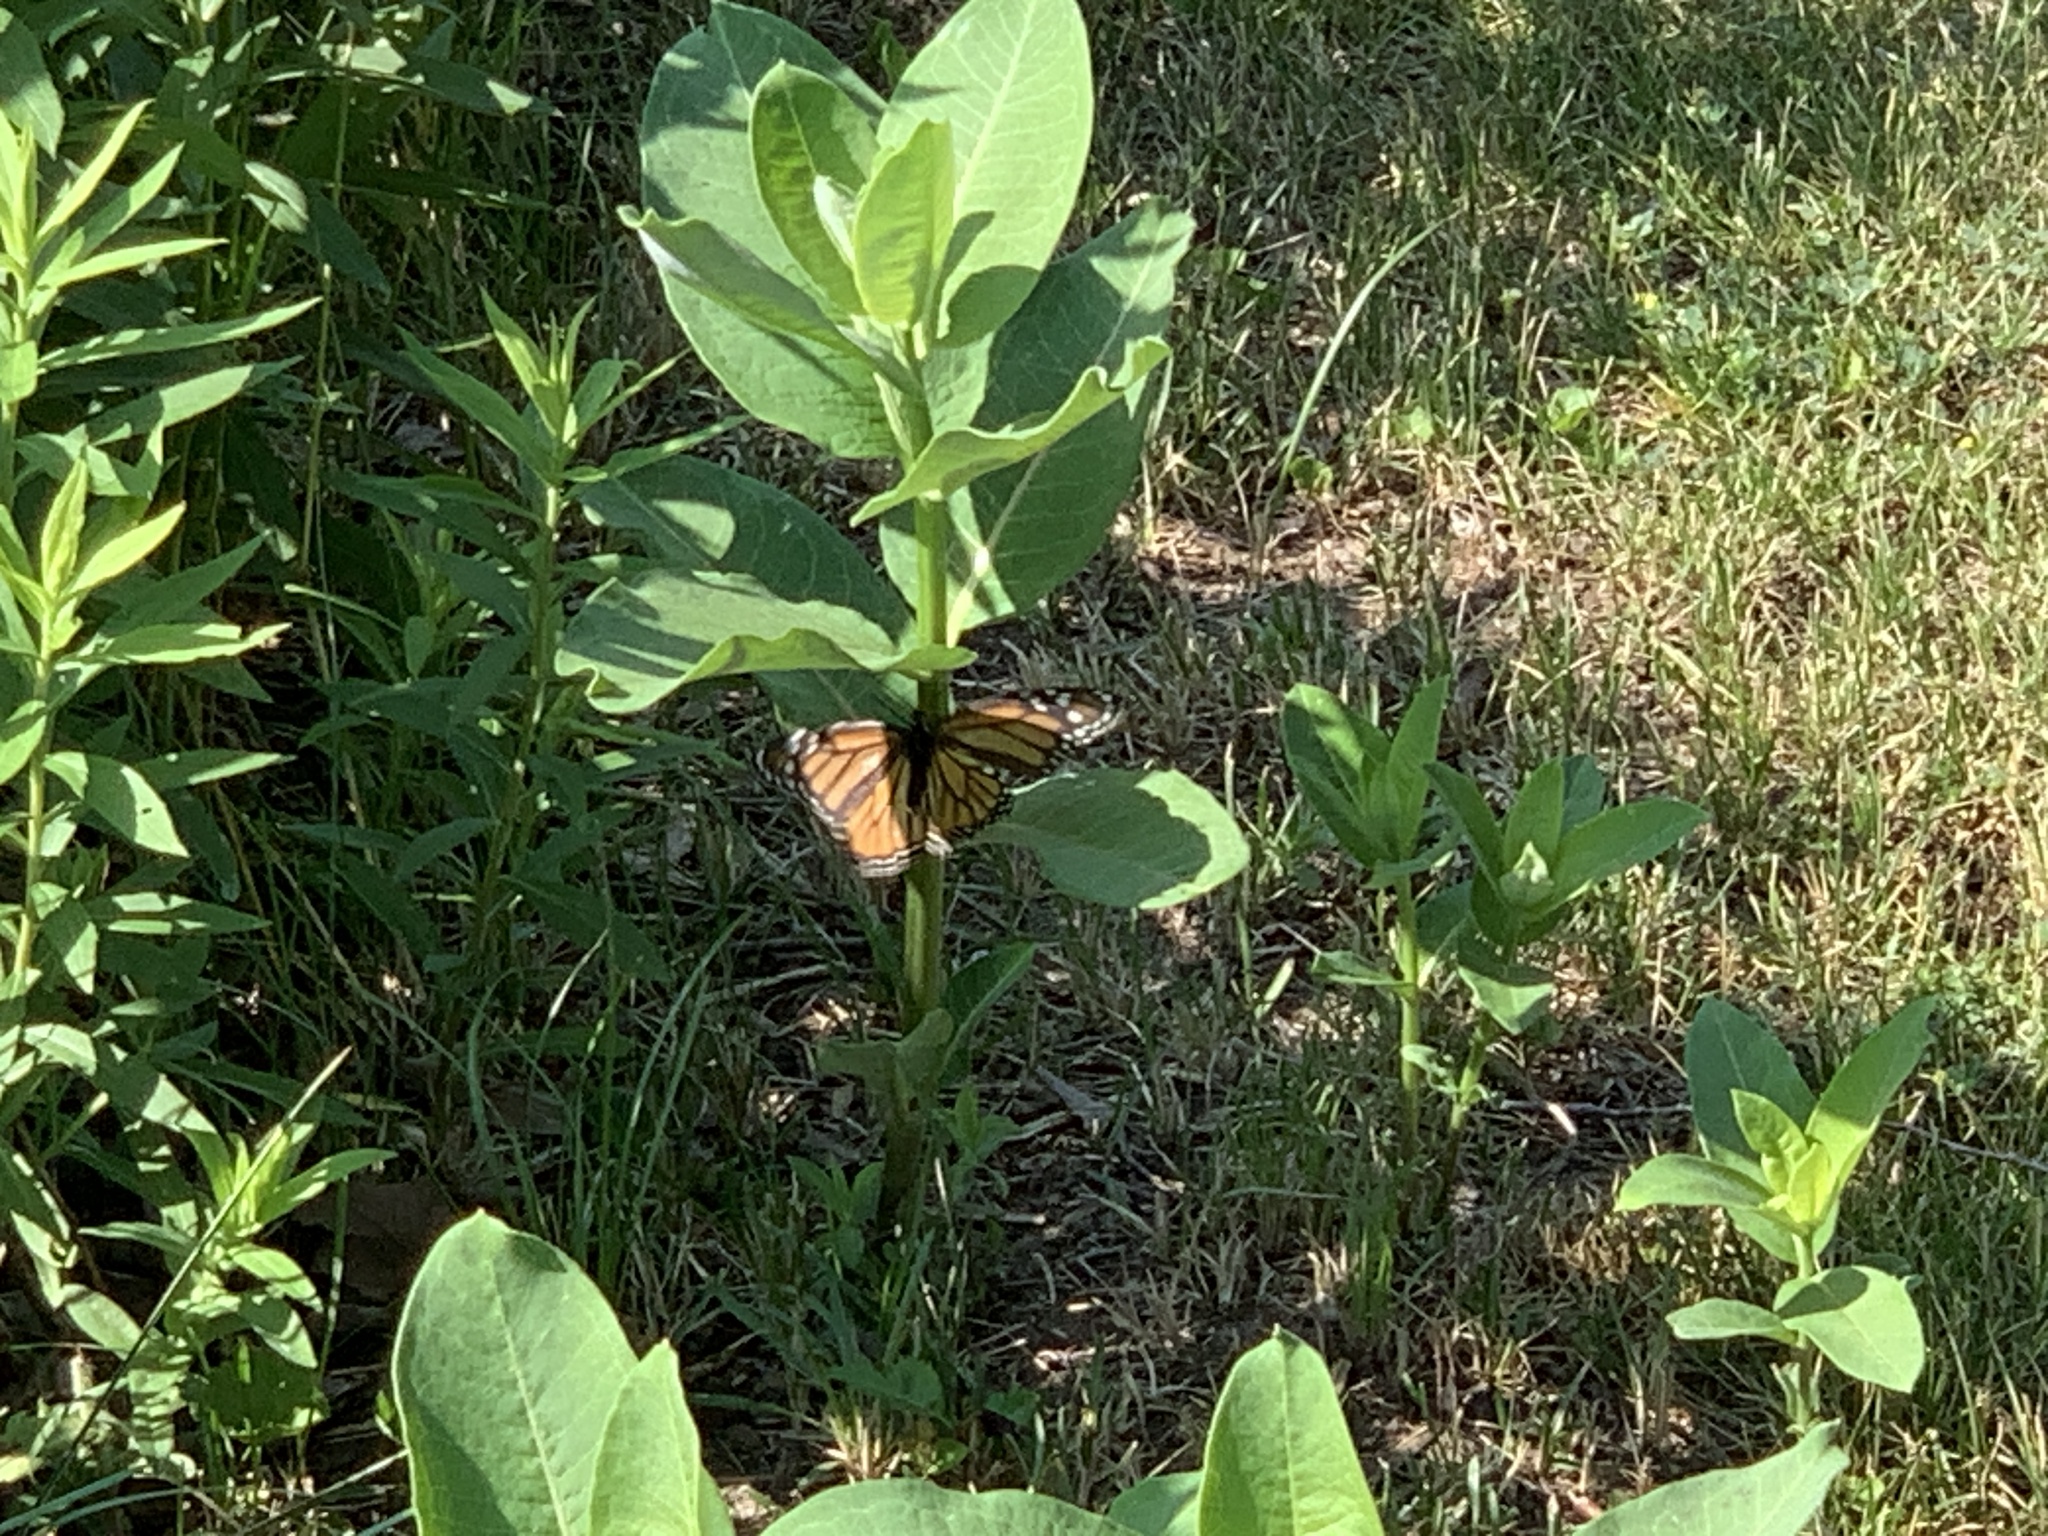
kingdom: Animalia
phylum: Arthropoda
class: Insecta
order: Lepidoptera
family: Nymphalidae
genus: Danaus
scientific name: Danaus plexippus
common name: Monarch
